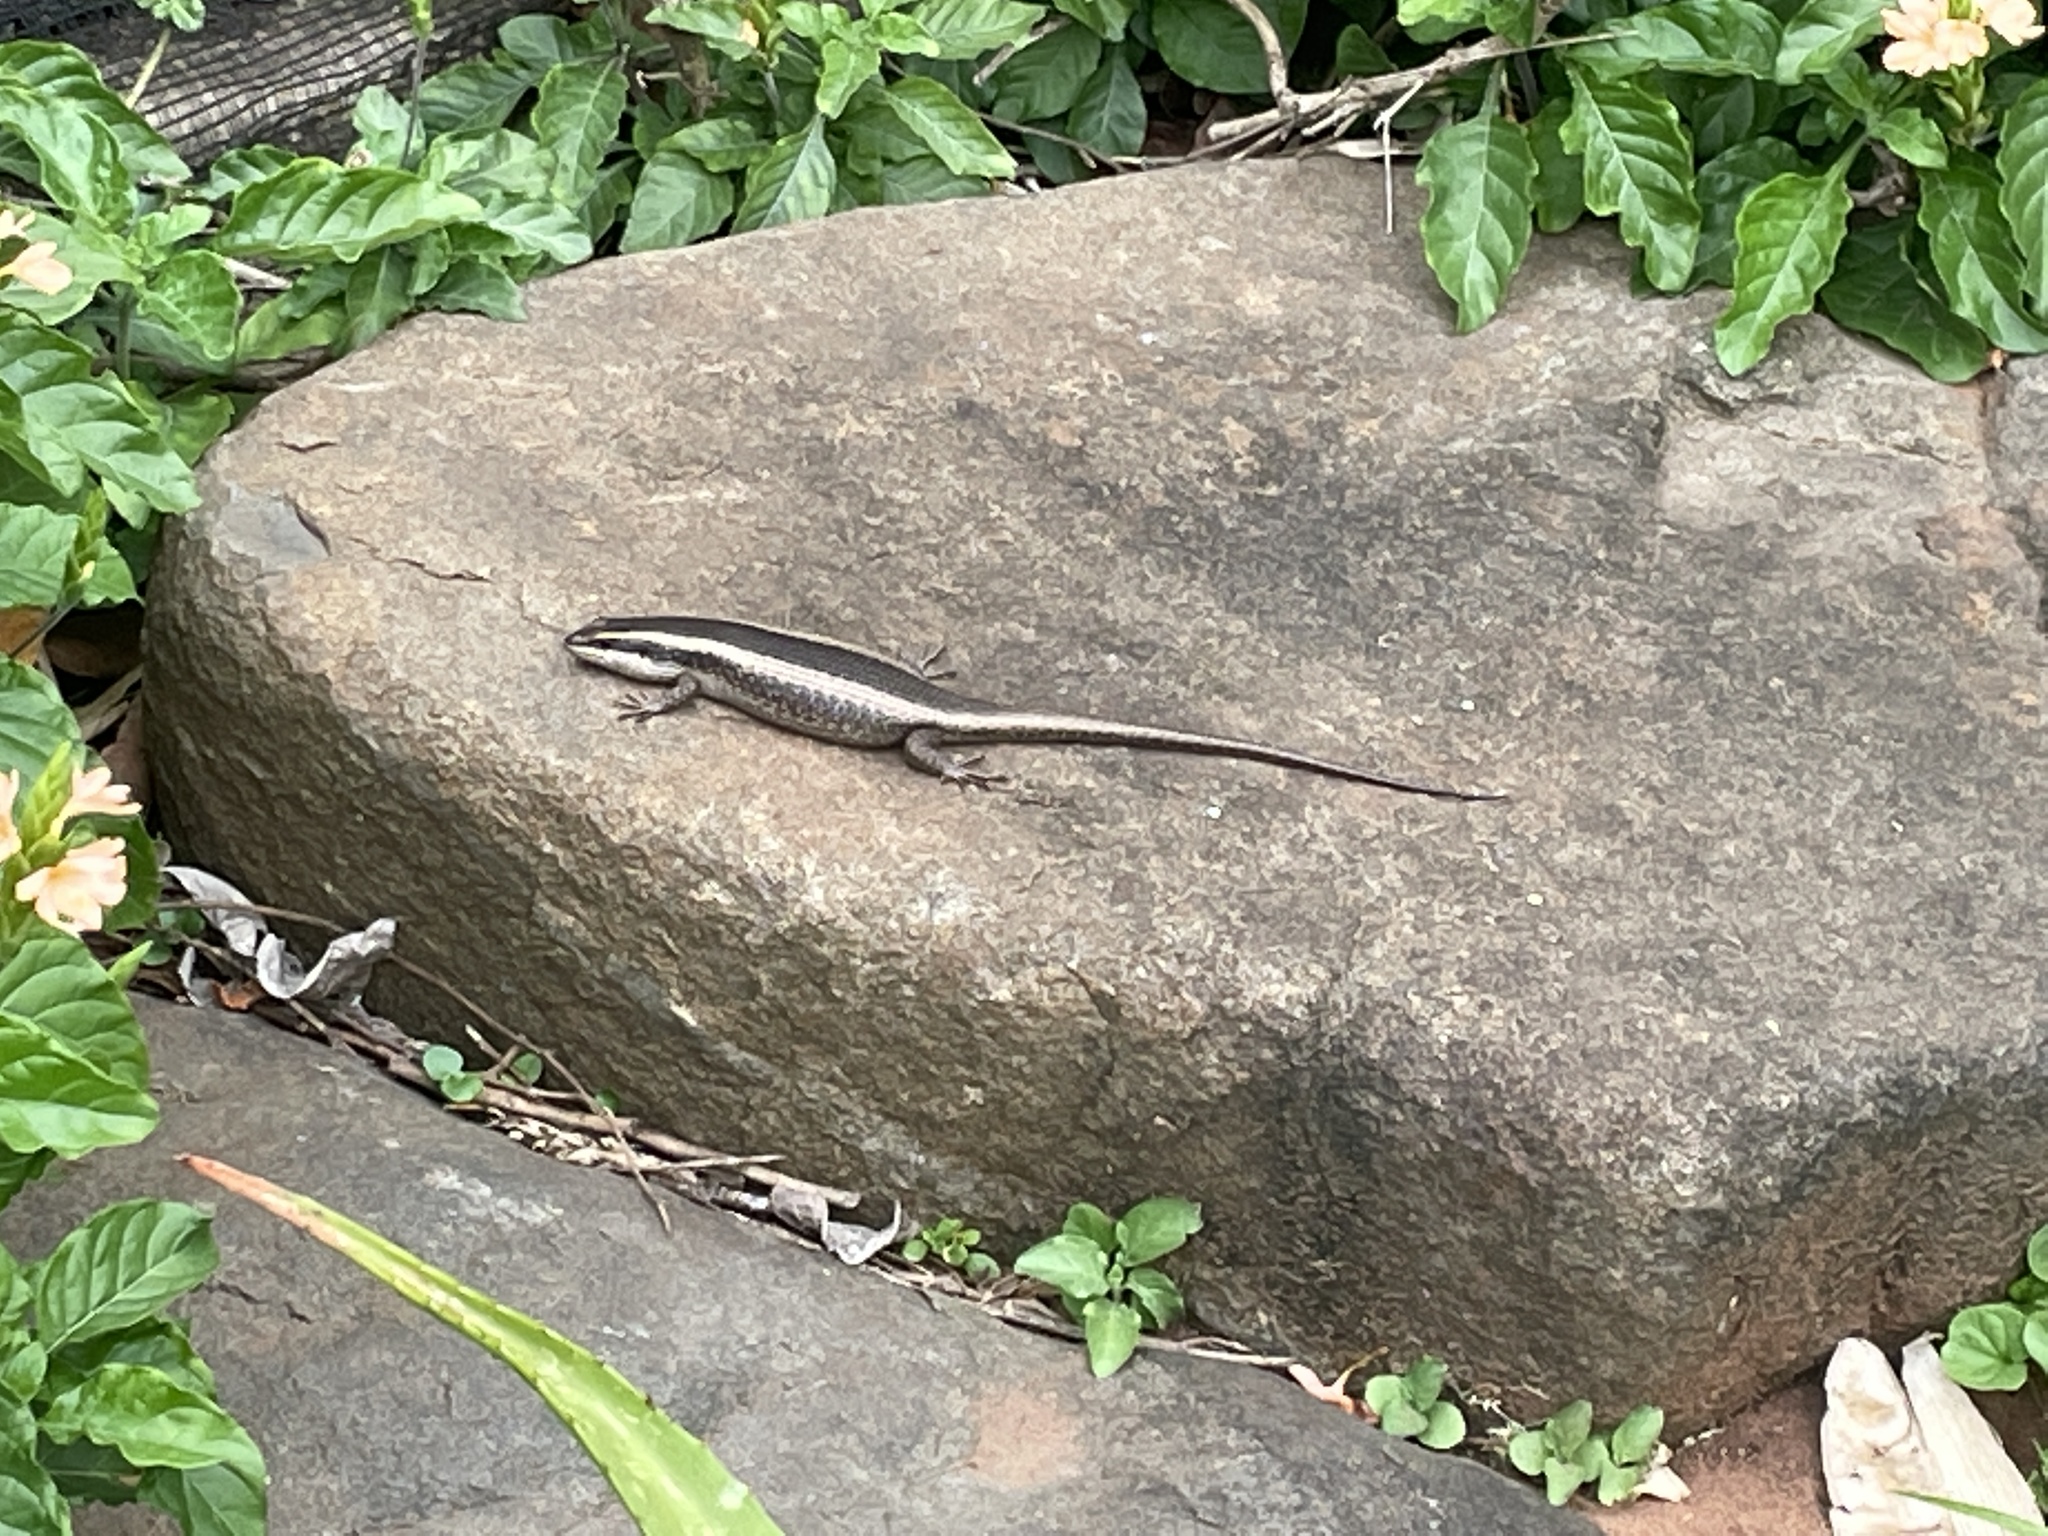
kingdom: Animalia
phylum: Chordata
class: Squamata
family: Scincidae
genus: Trachylepis
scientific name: Trachylepis striata
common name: African striped mabuya
